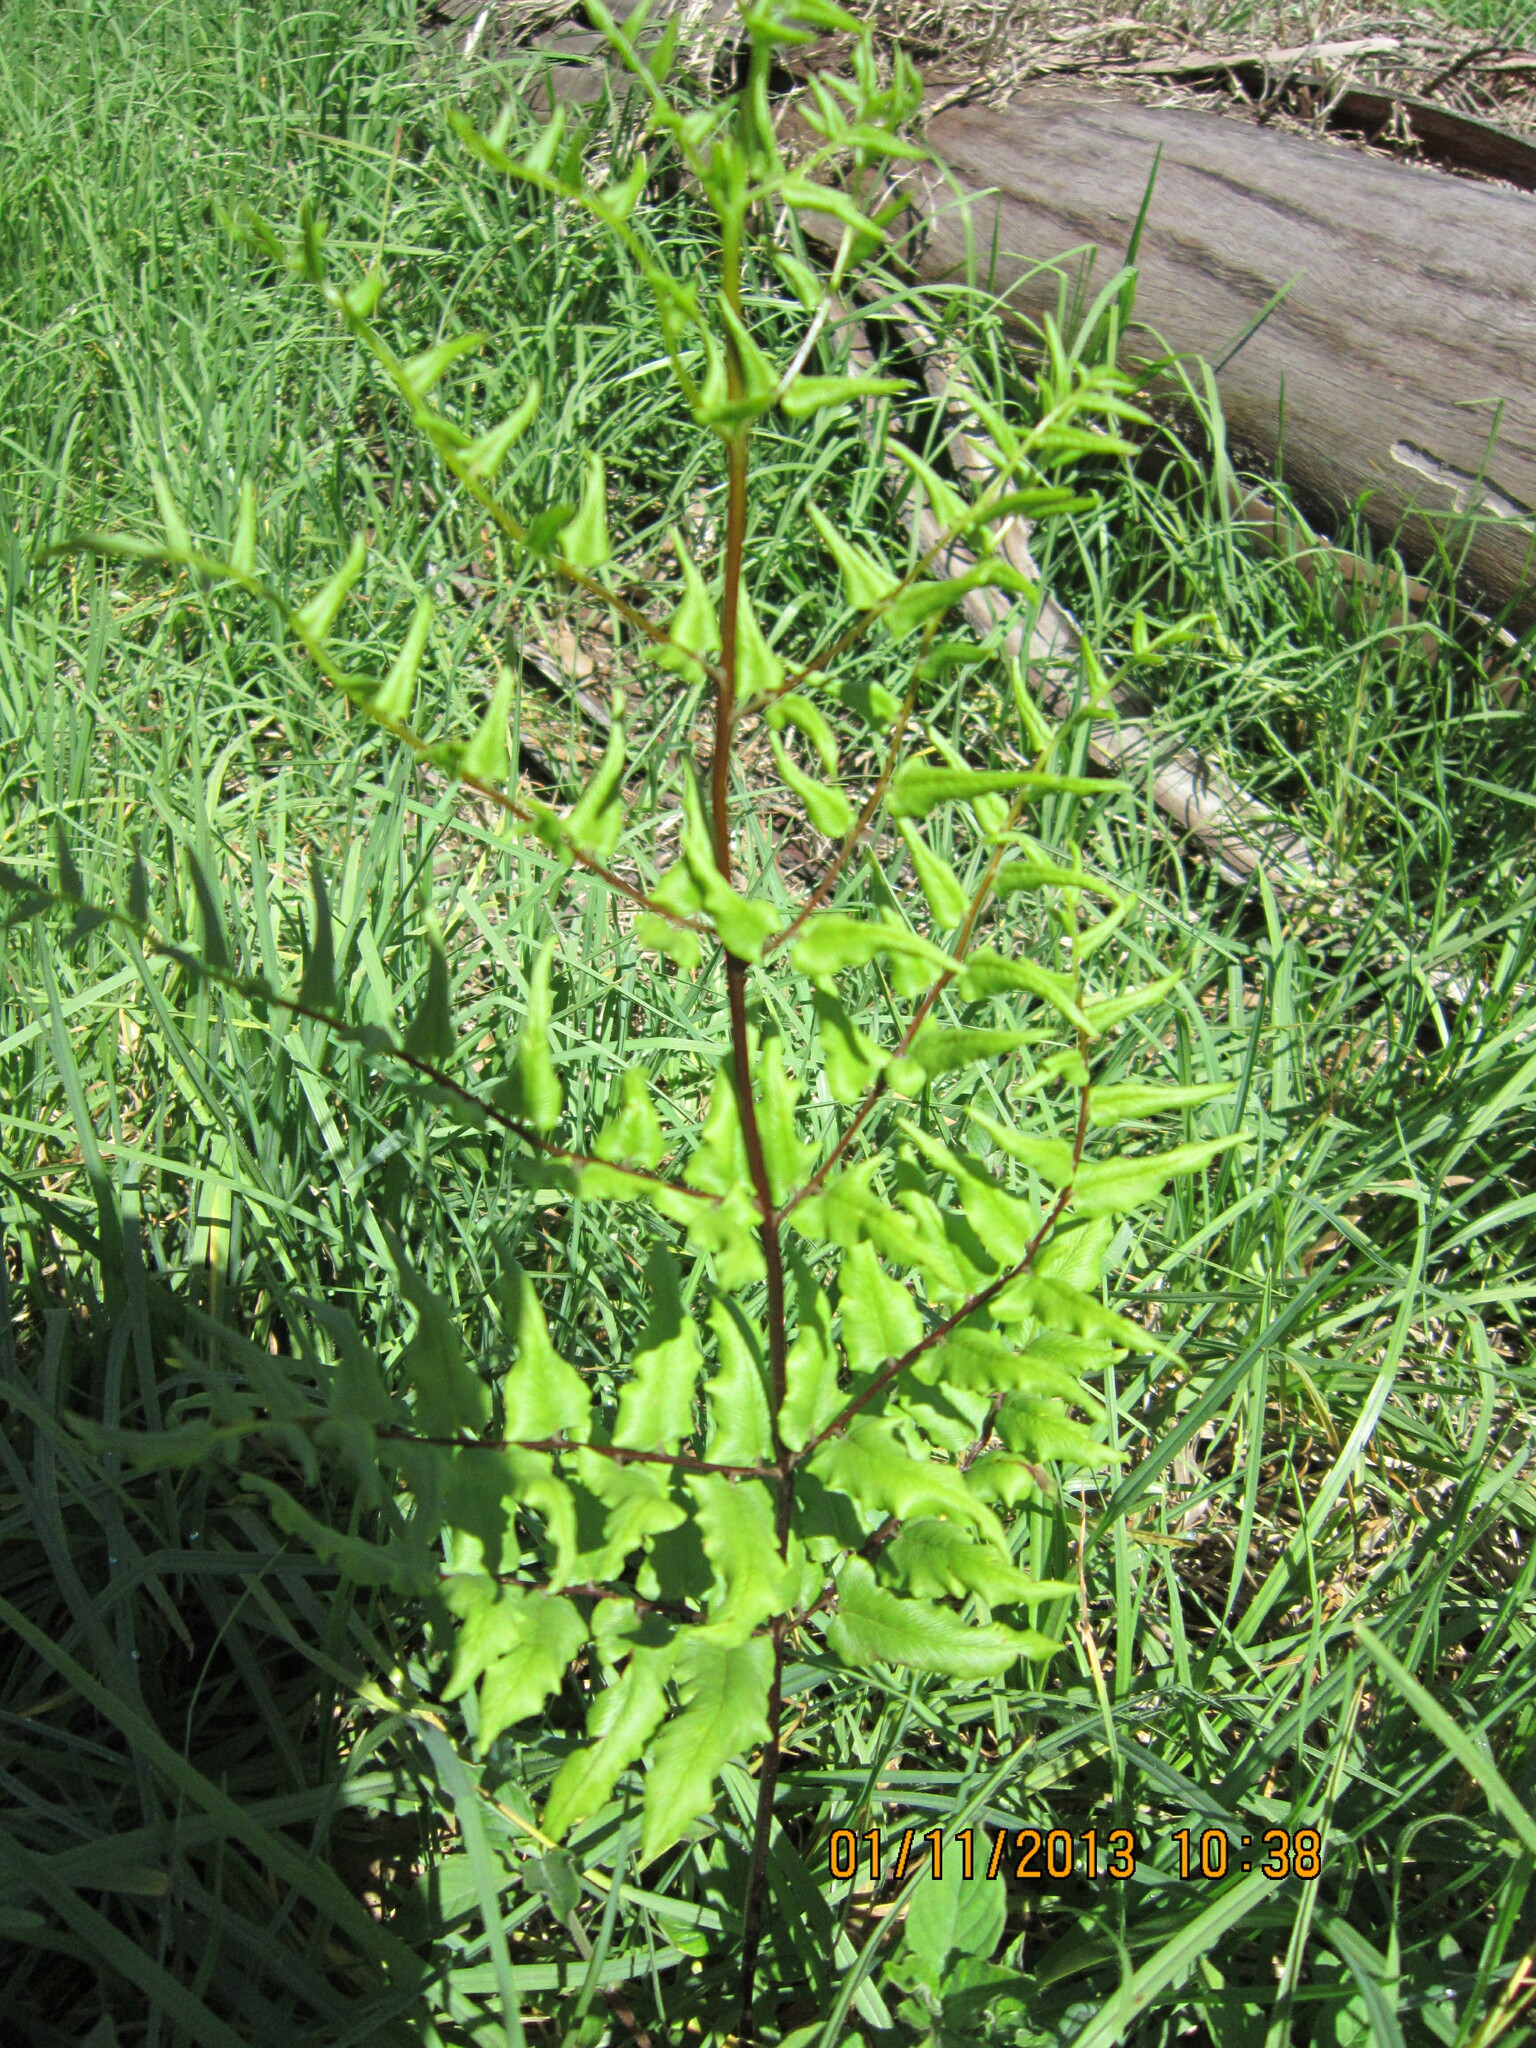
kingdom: Plantae
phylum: Tracheophyta
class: Polypodiopsida
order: Polypodiales
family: Pteridaceae
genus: Cheilanthes
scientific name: Cheilanthes viridis
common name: Green cliffbrake
